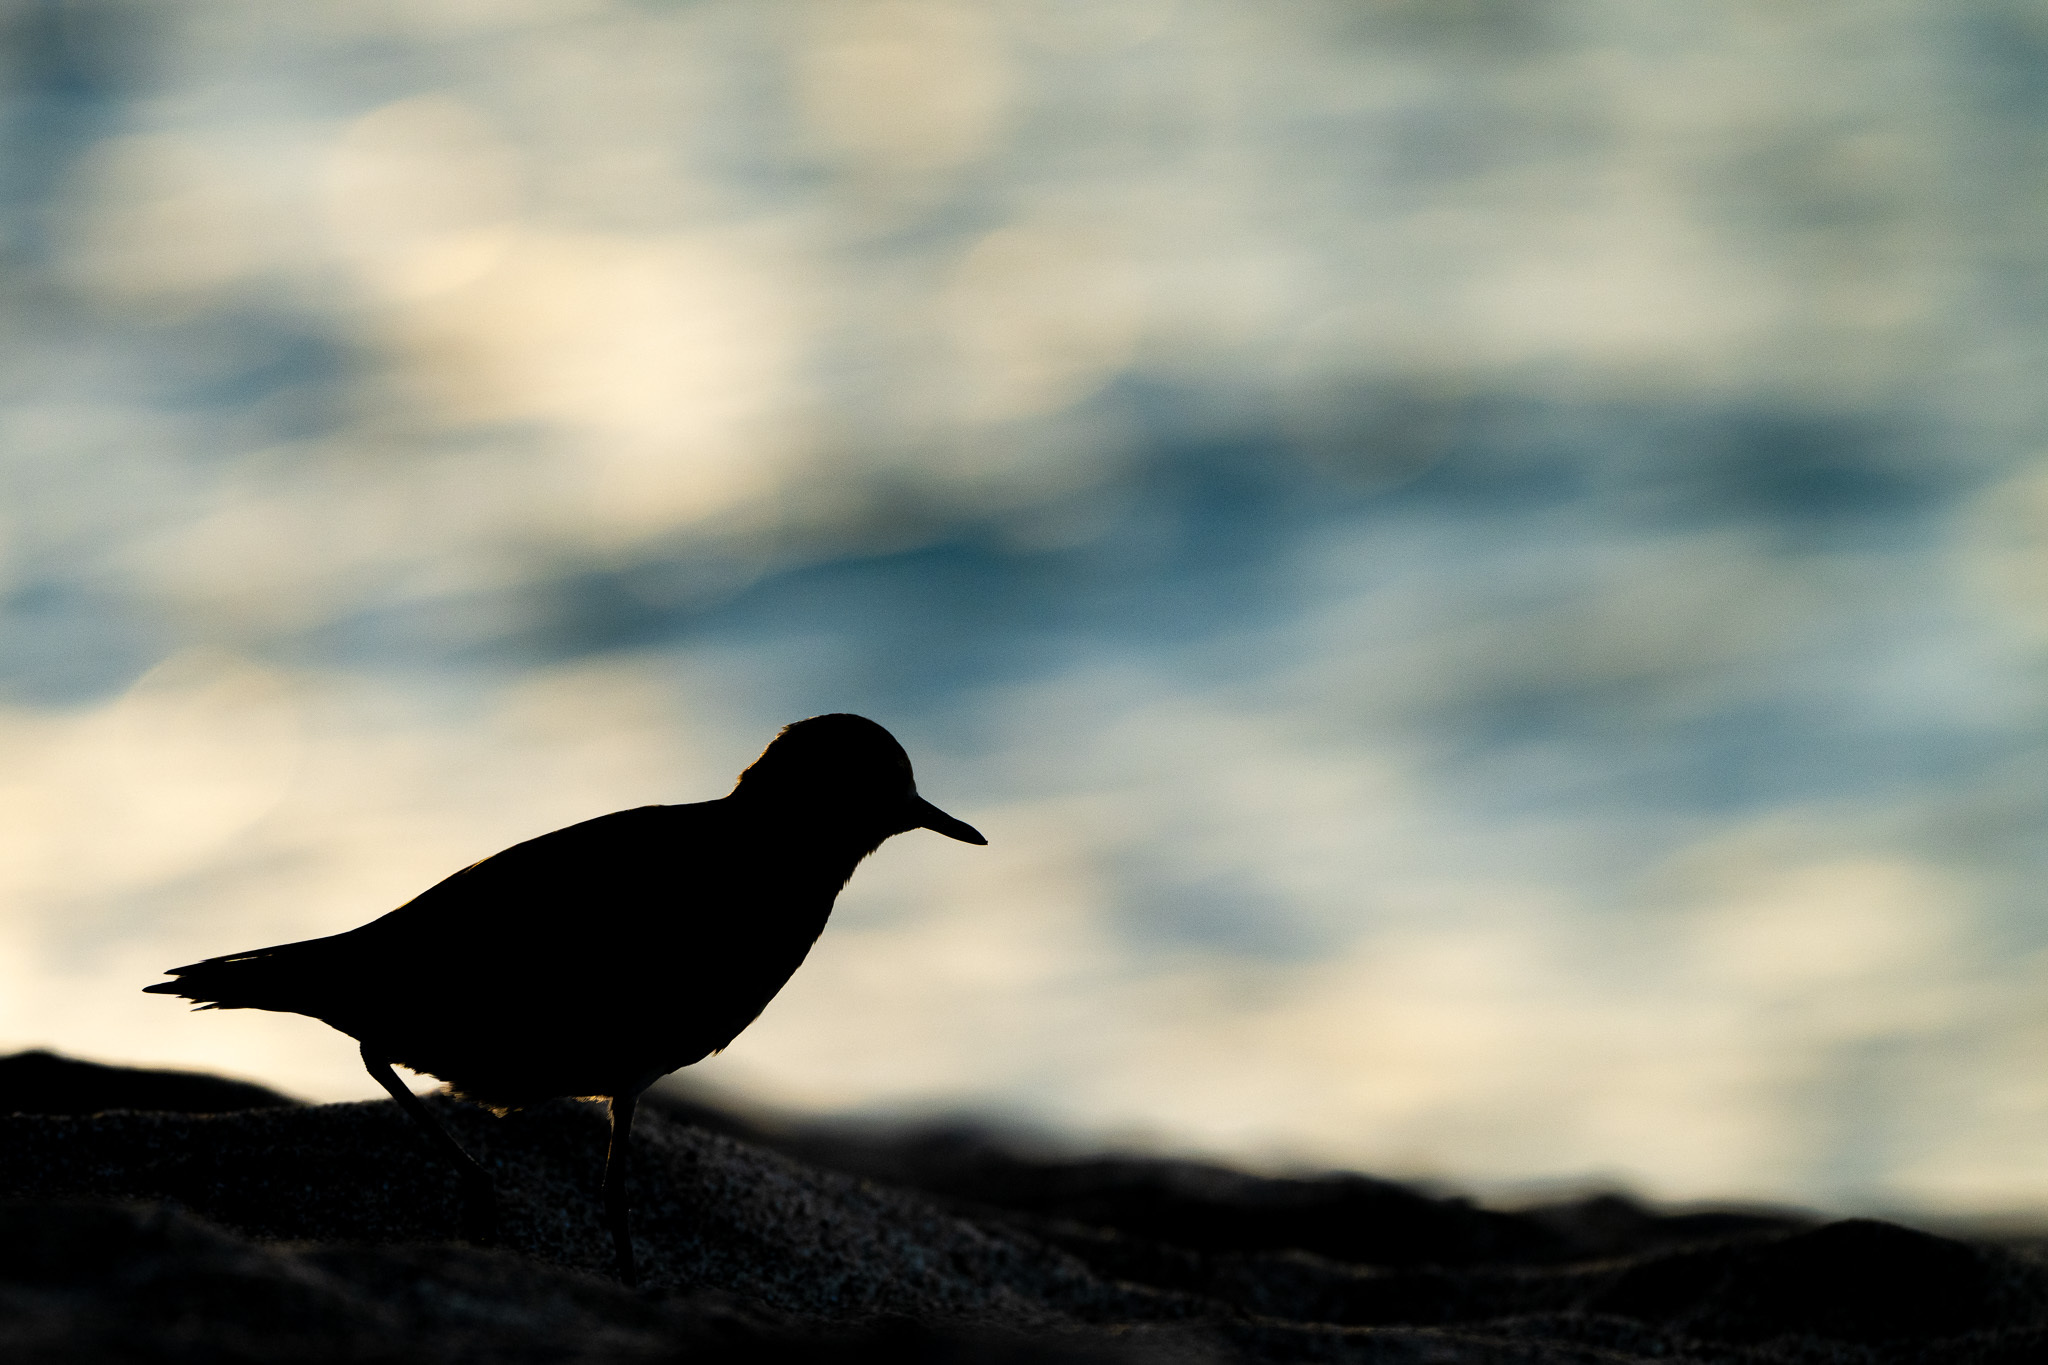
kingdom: Animalia
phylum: Chordata
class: Aves
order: Charadriiformes
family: Charadriidae
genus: Pluvialis
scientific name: Pluvialis fulva
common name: Pacific golden plover
